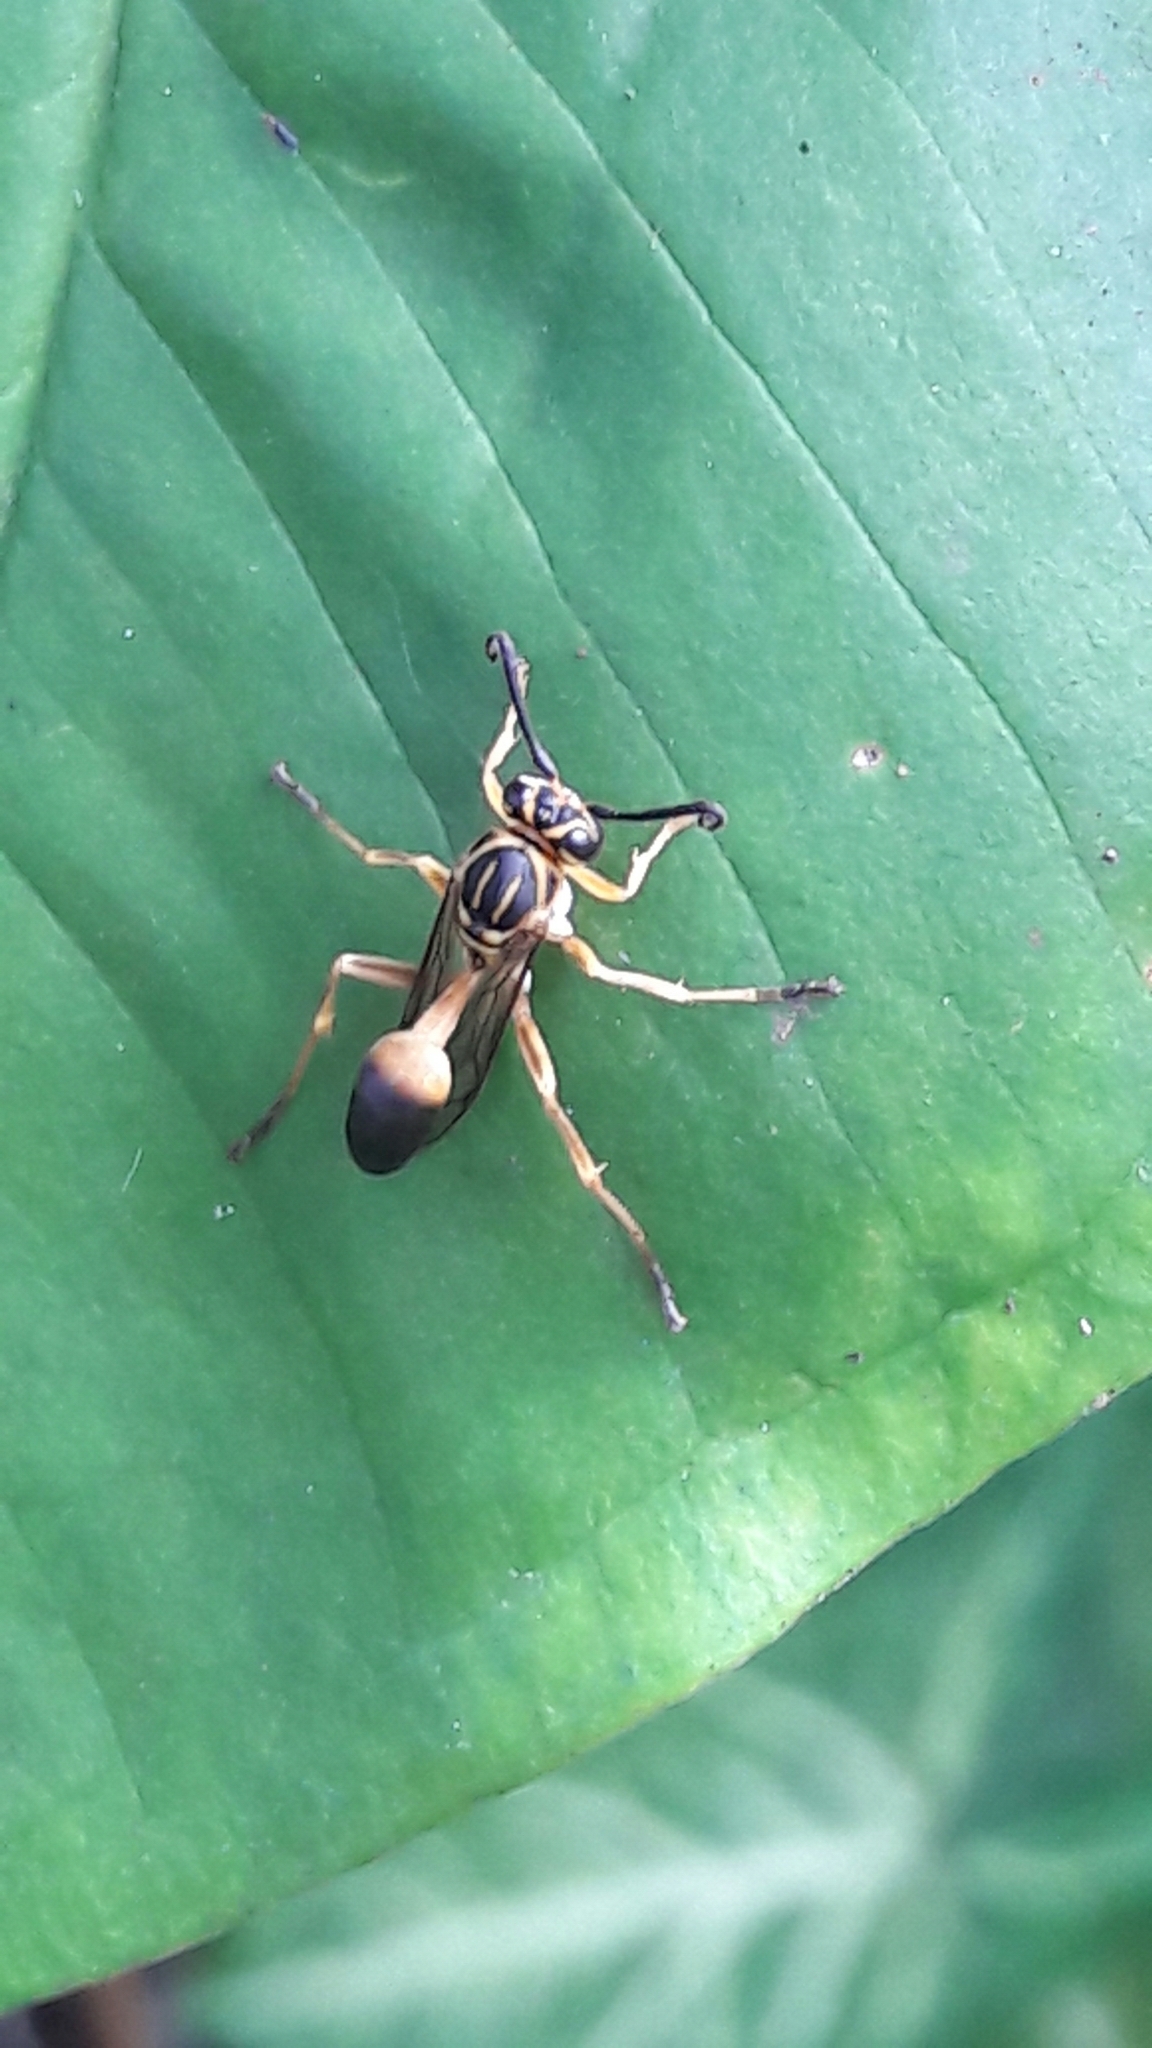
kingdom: Animalia
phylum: Arthropoda
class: Insecta
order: Hymenoptera
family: Vespidae
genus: Mischocyttarus
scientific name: Mischocyttarus cerberus
